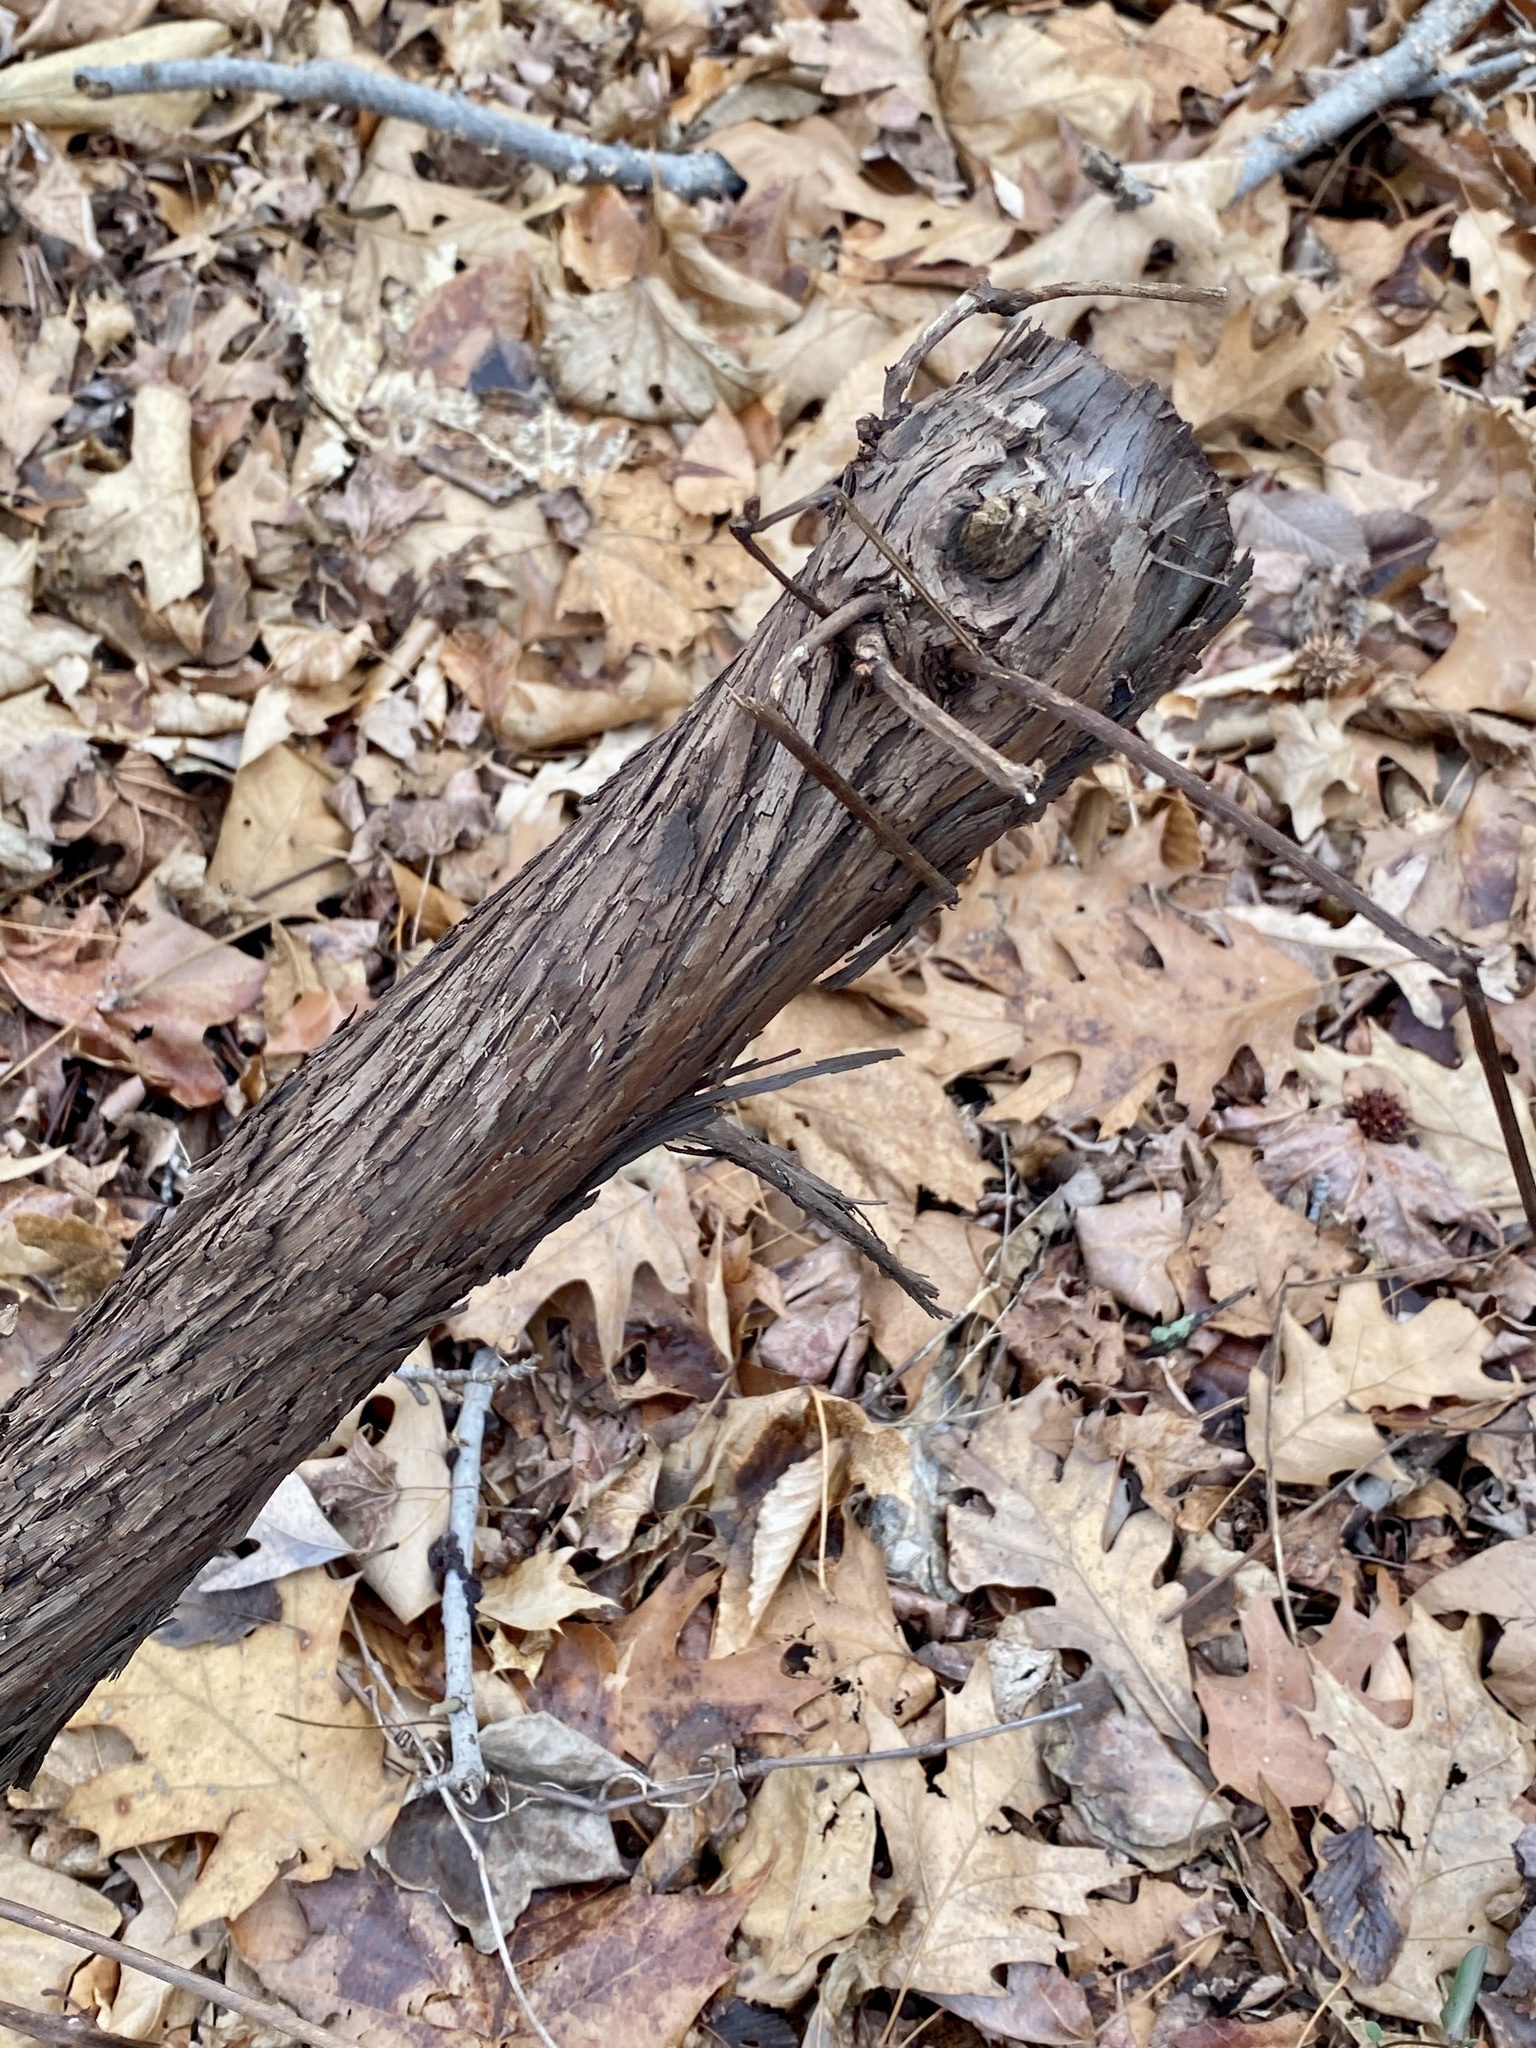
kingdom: Plantae
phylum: Tracheophyta
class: Magnoliopsida
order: Vitales
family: Vitaceae
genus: Vitis
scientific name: Vitis
